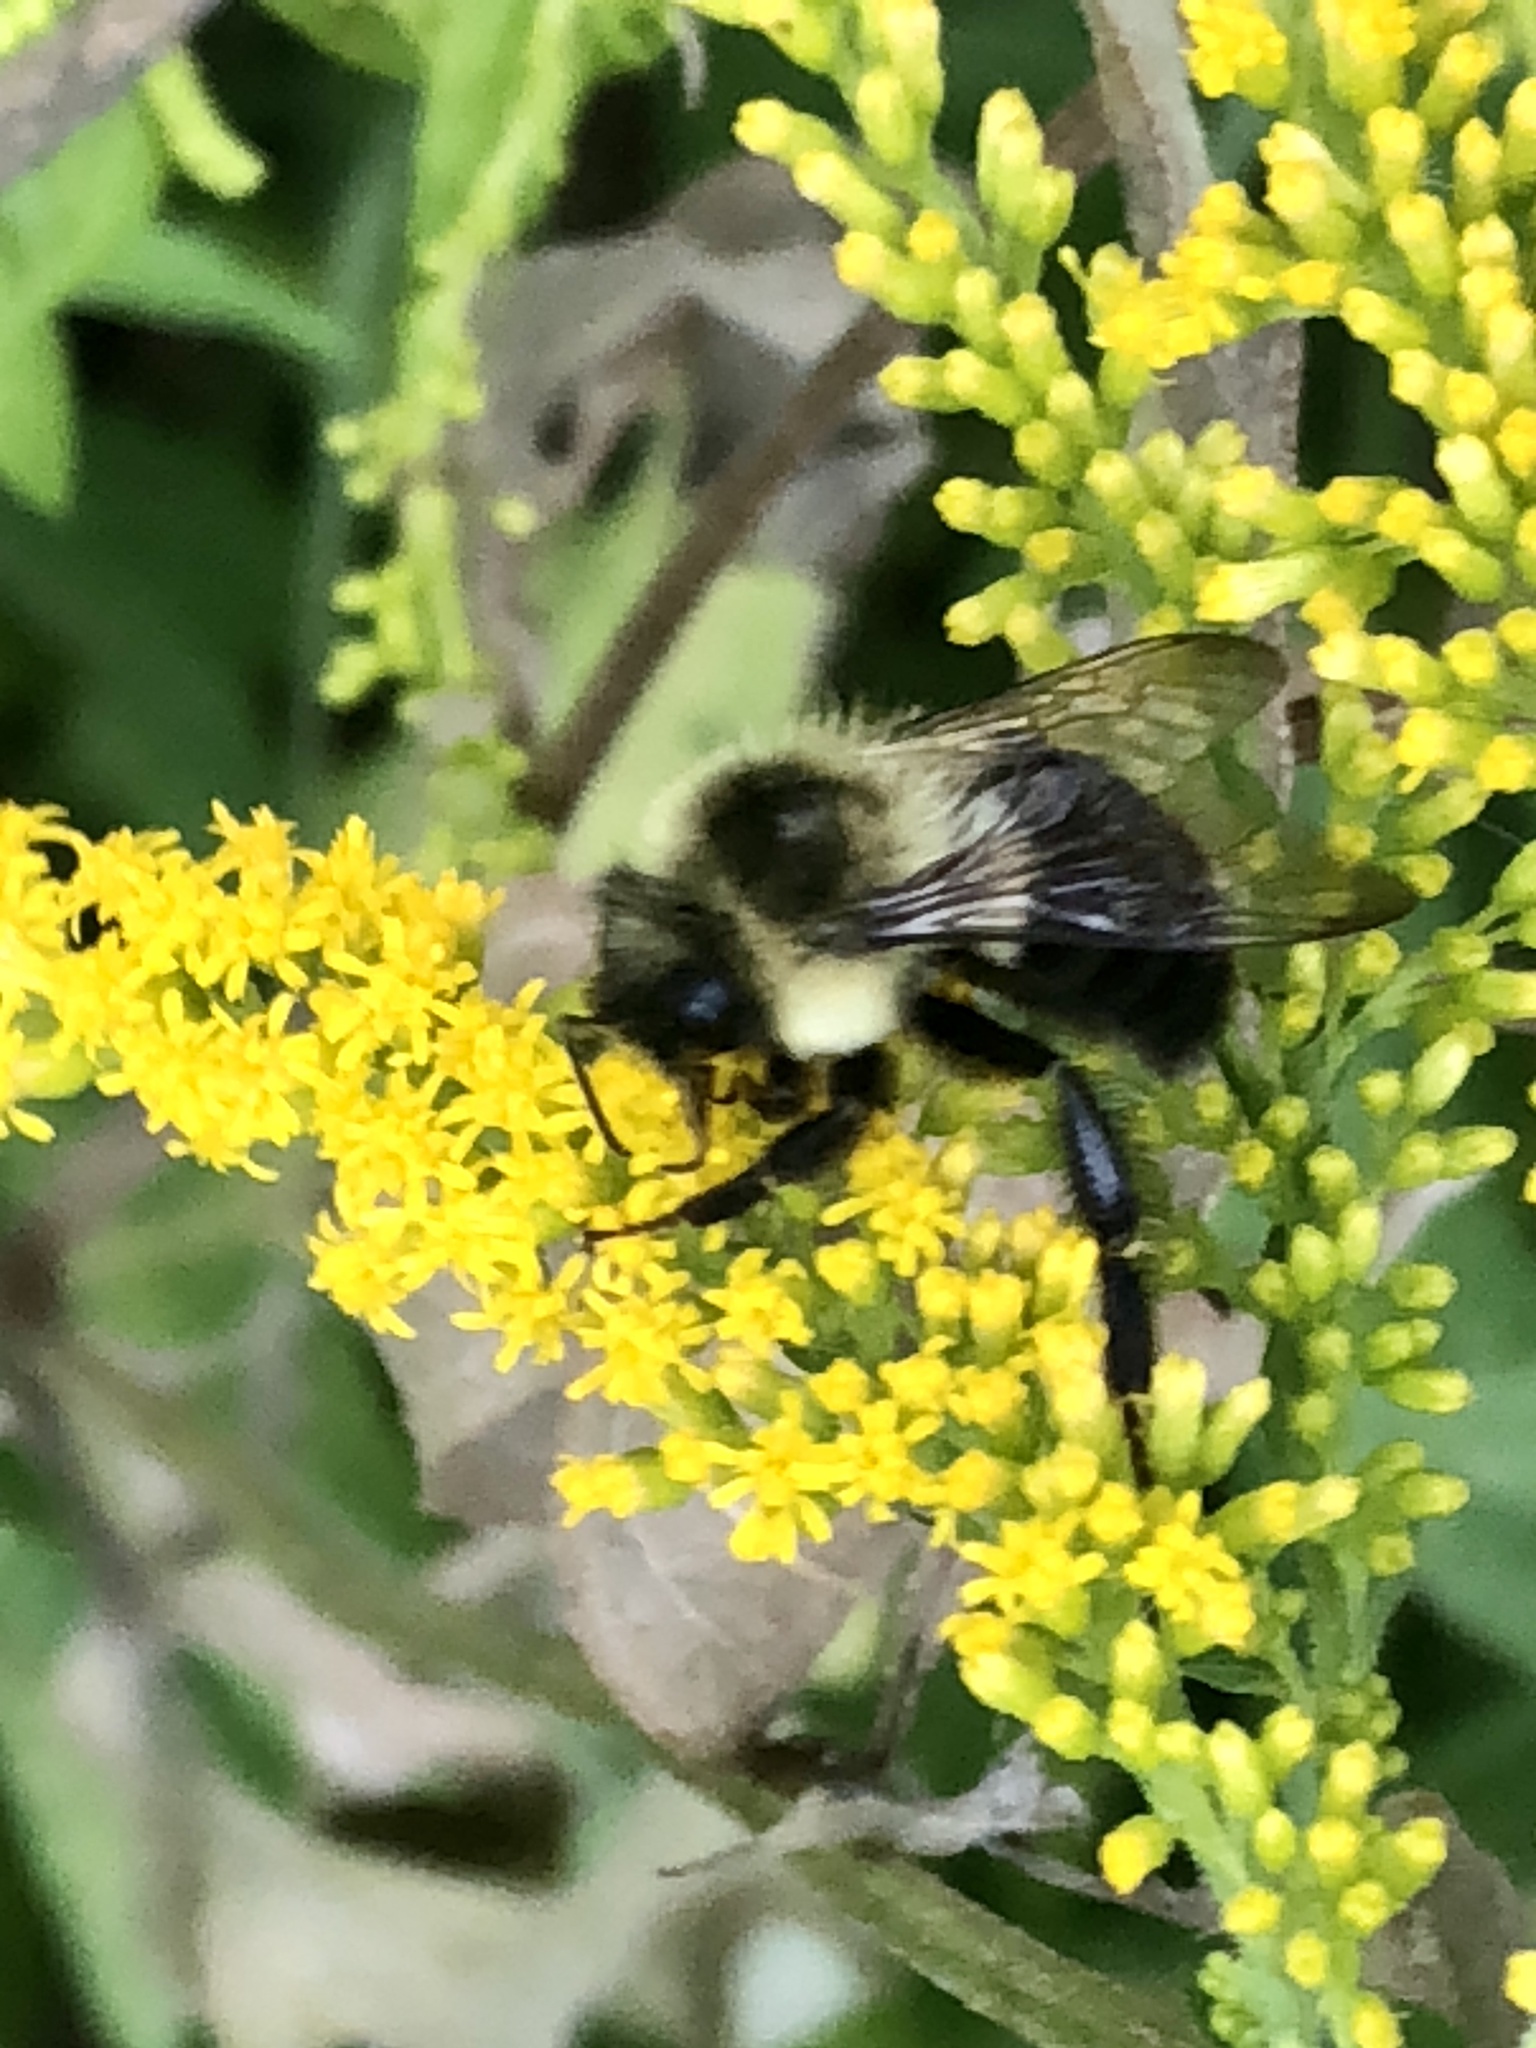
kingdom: Animalia
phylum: Arthropoda
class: Insecta
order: Hymenoptera
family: Apidae
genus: Bombus
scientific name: Bombus impatiens
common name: Common eastern bumble bee
